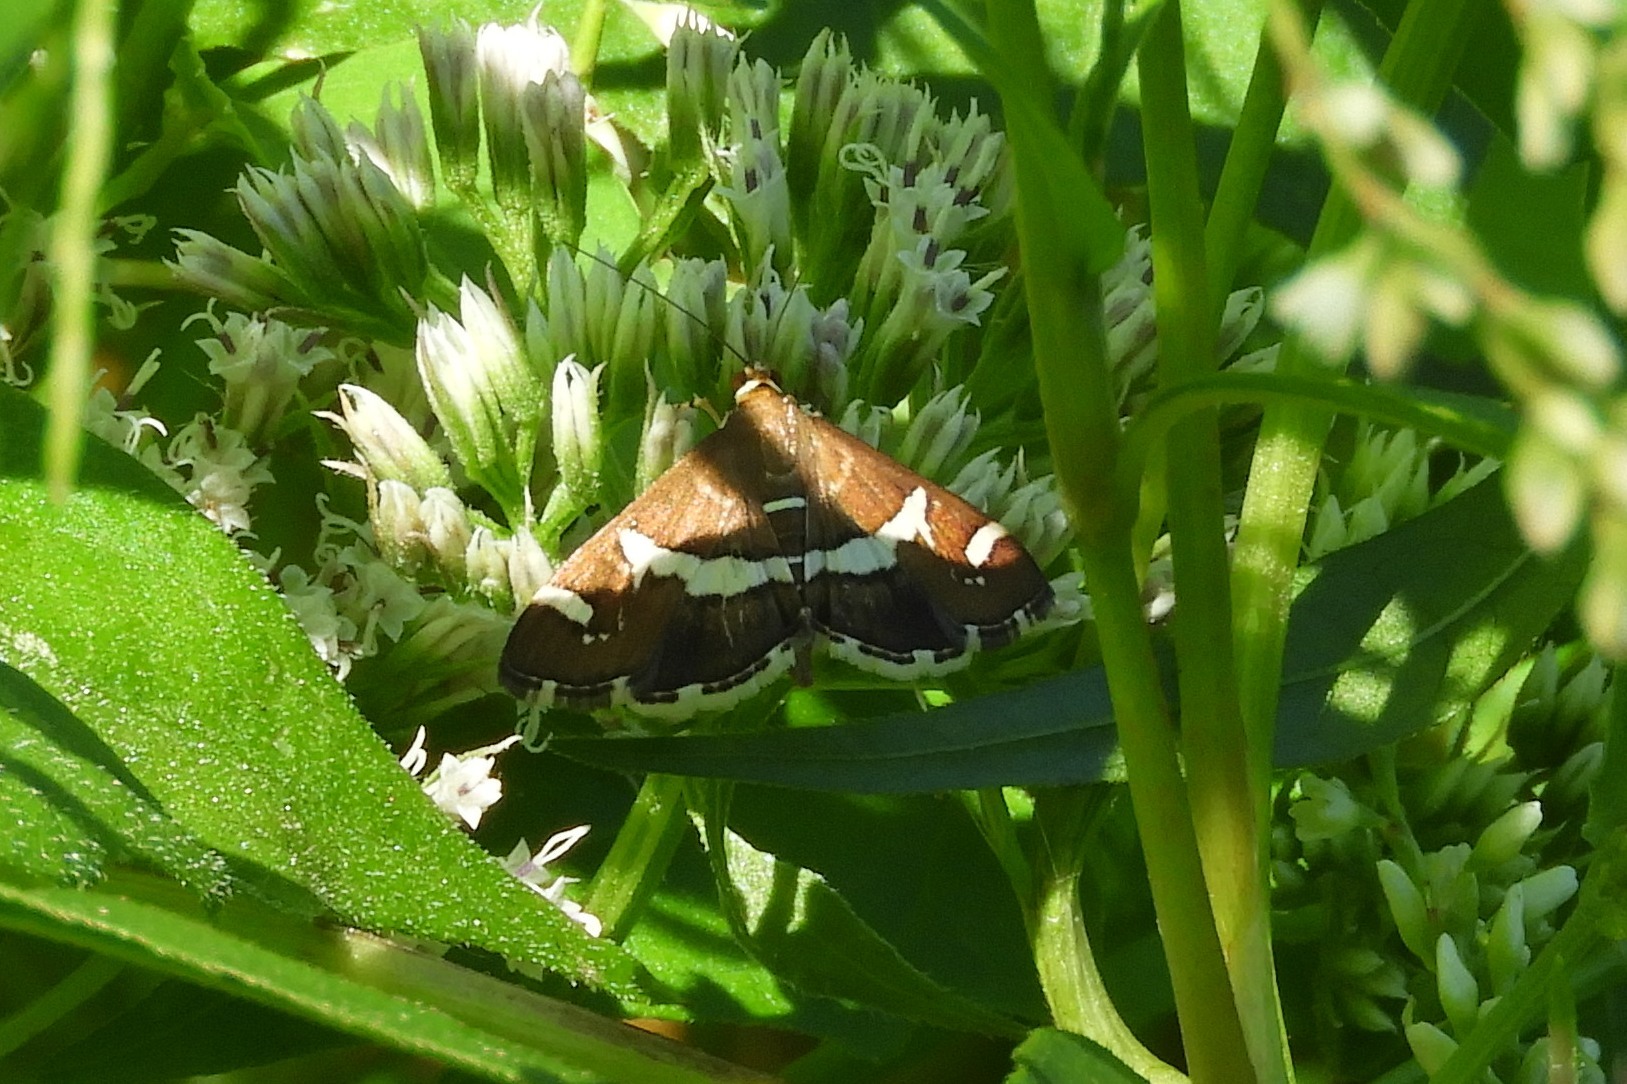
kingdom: Animalia
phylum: Arthropoda
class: Insecta
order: Lepidoptera
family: Crambidae
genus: Spoladea
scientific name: Spoladea recurvalis
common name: Beet webworm moth
